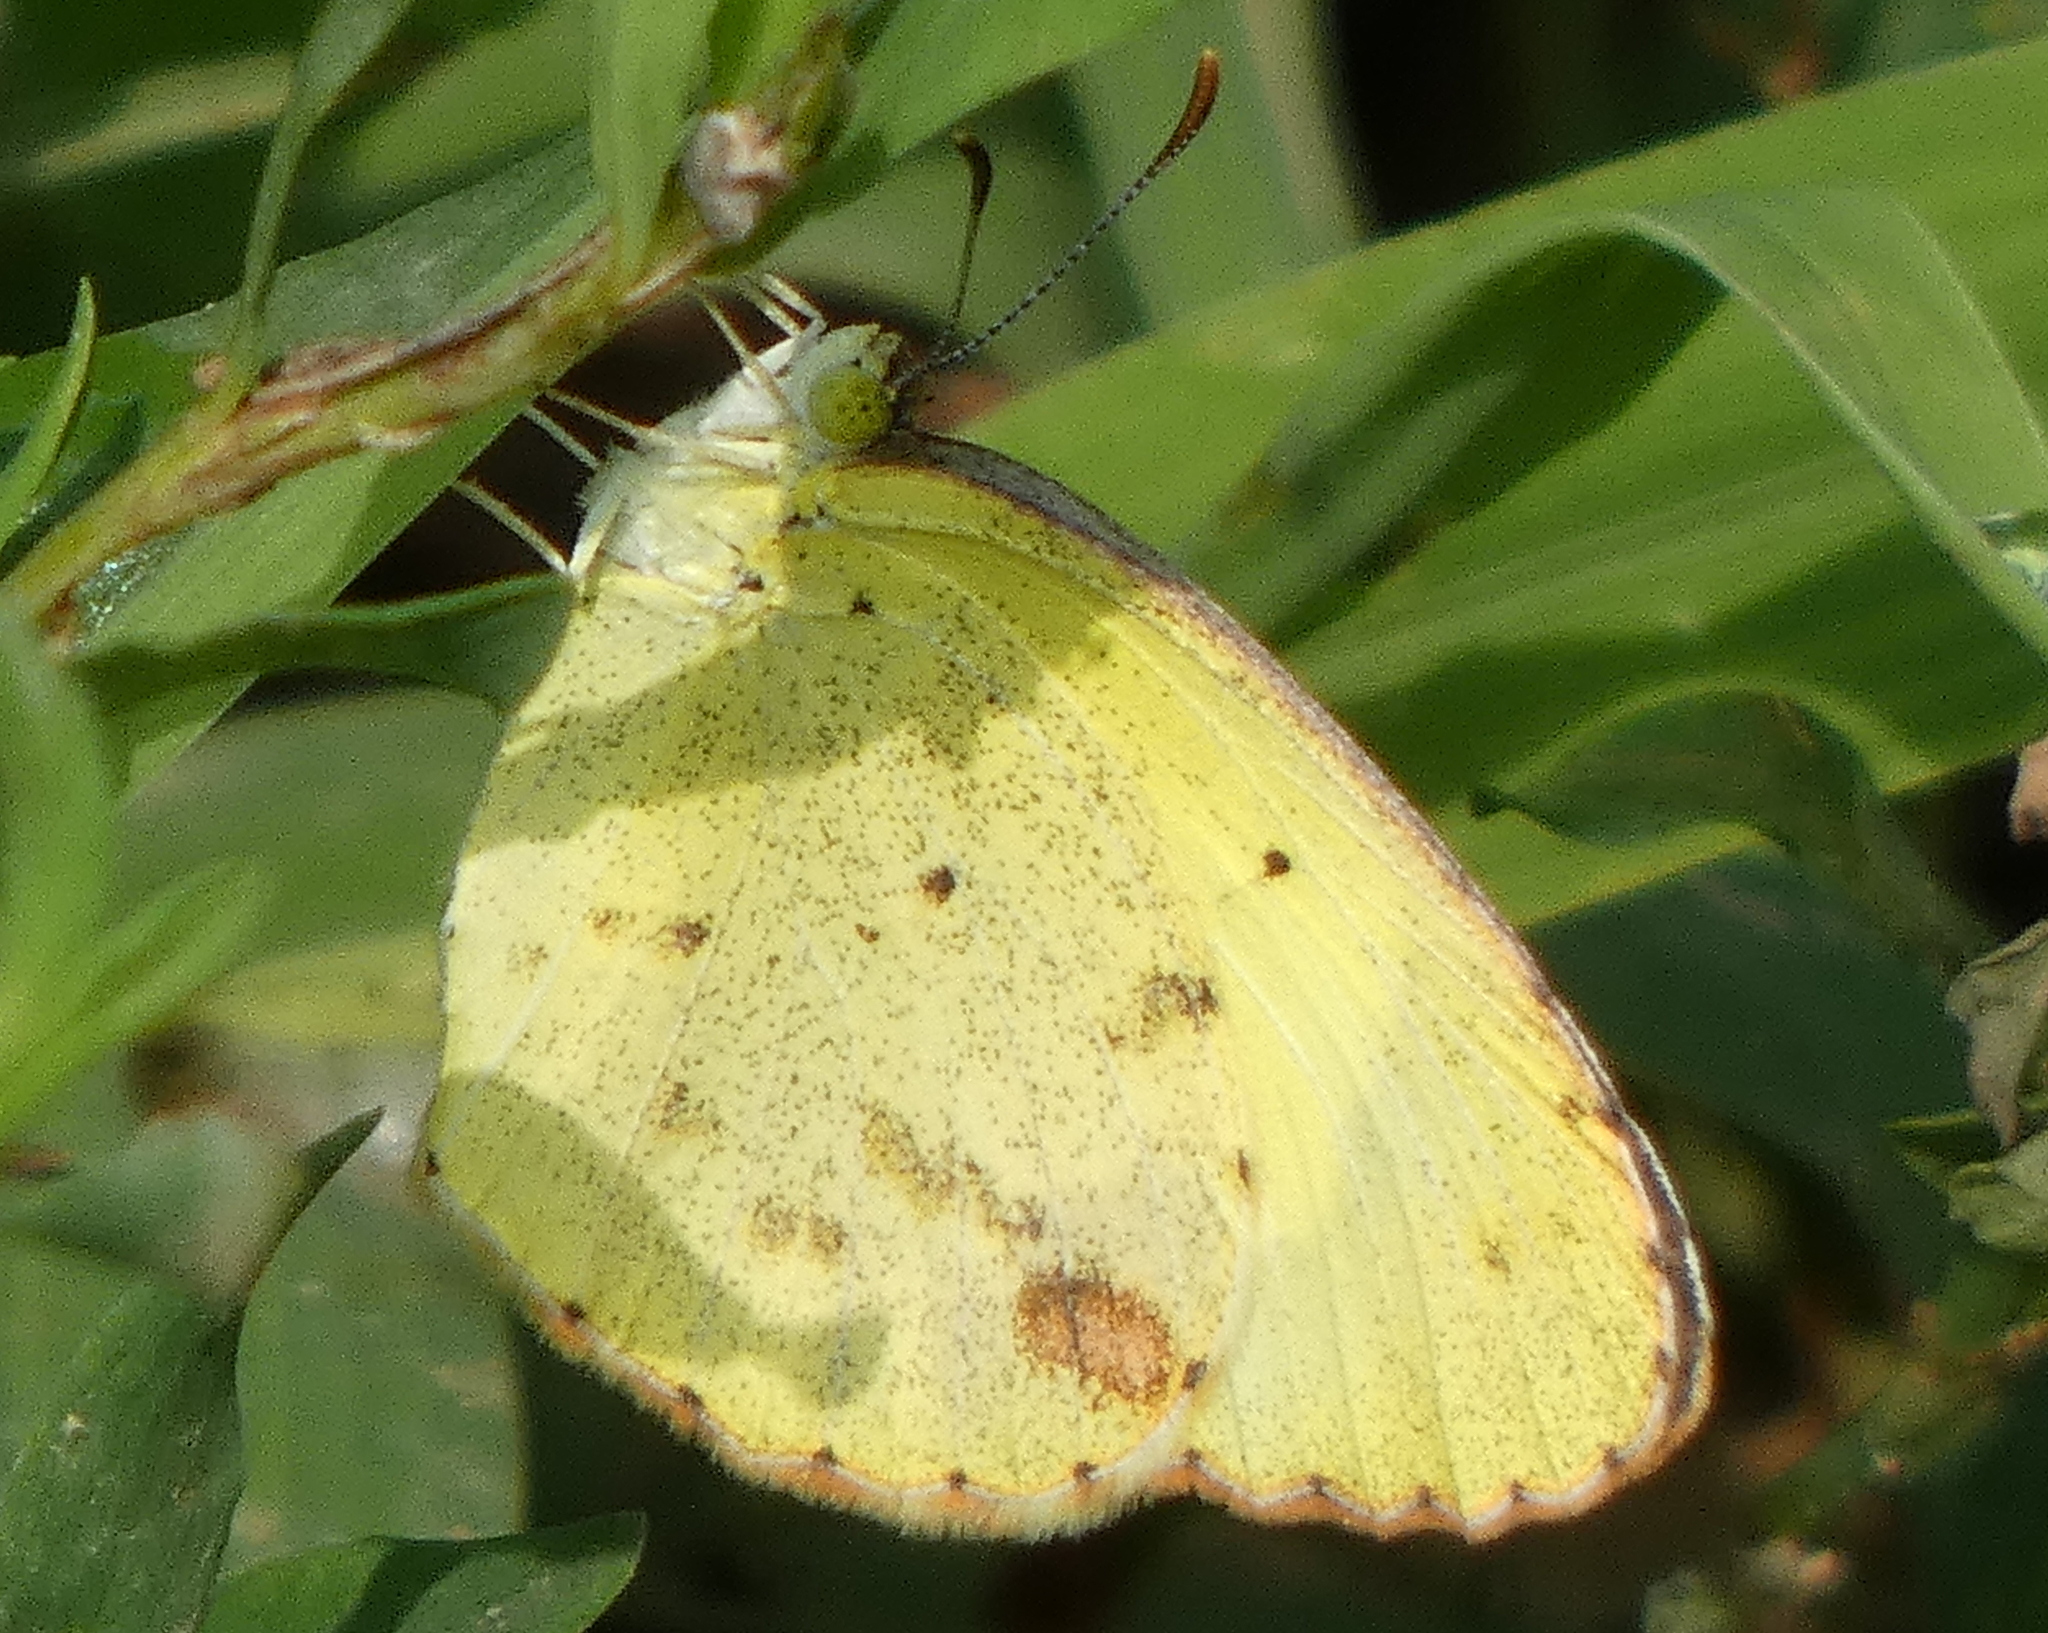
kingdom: Animalia
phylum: Arthropoda
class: Insecta
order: Lepidoptera
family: Pieridae
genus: Pyrisitia
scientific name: Pyrisitia lisa
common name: Little yellow
